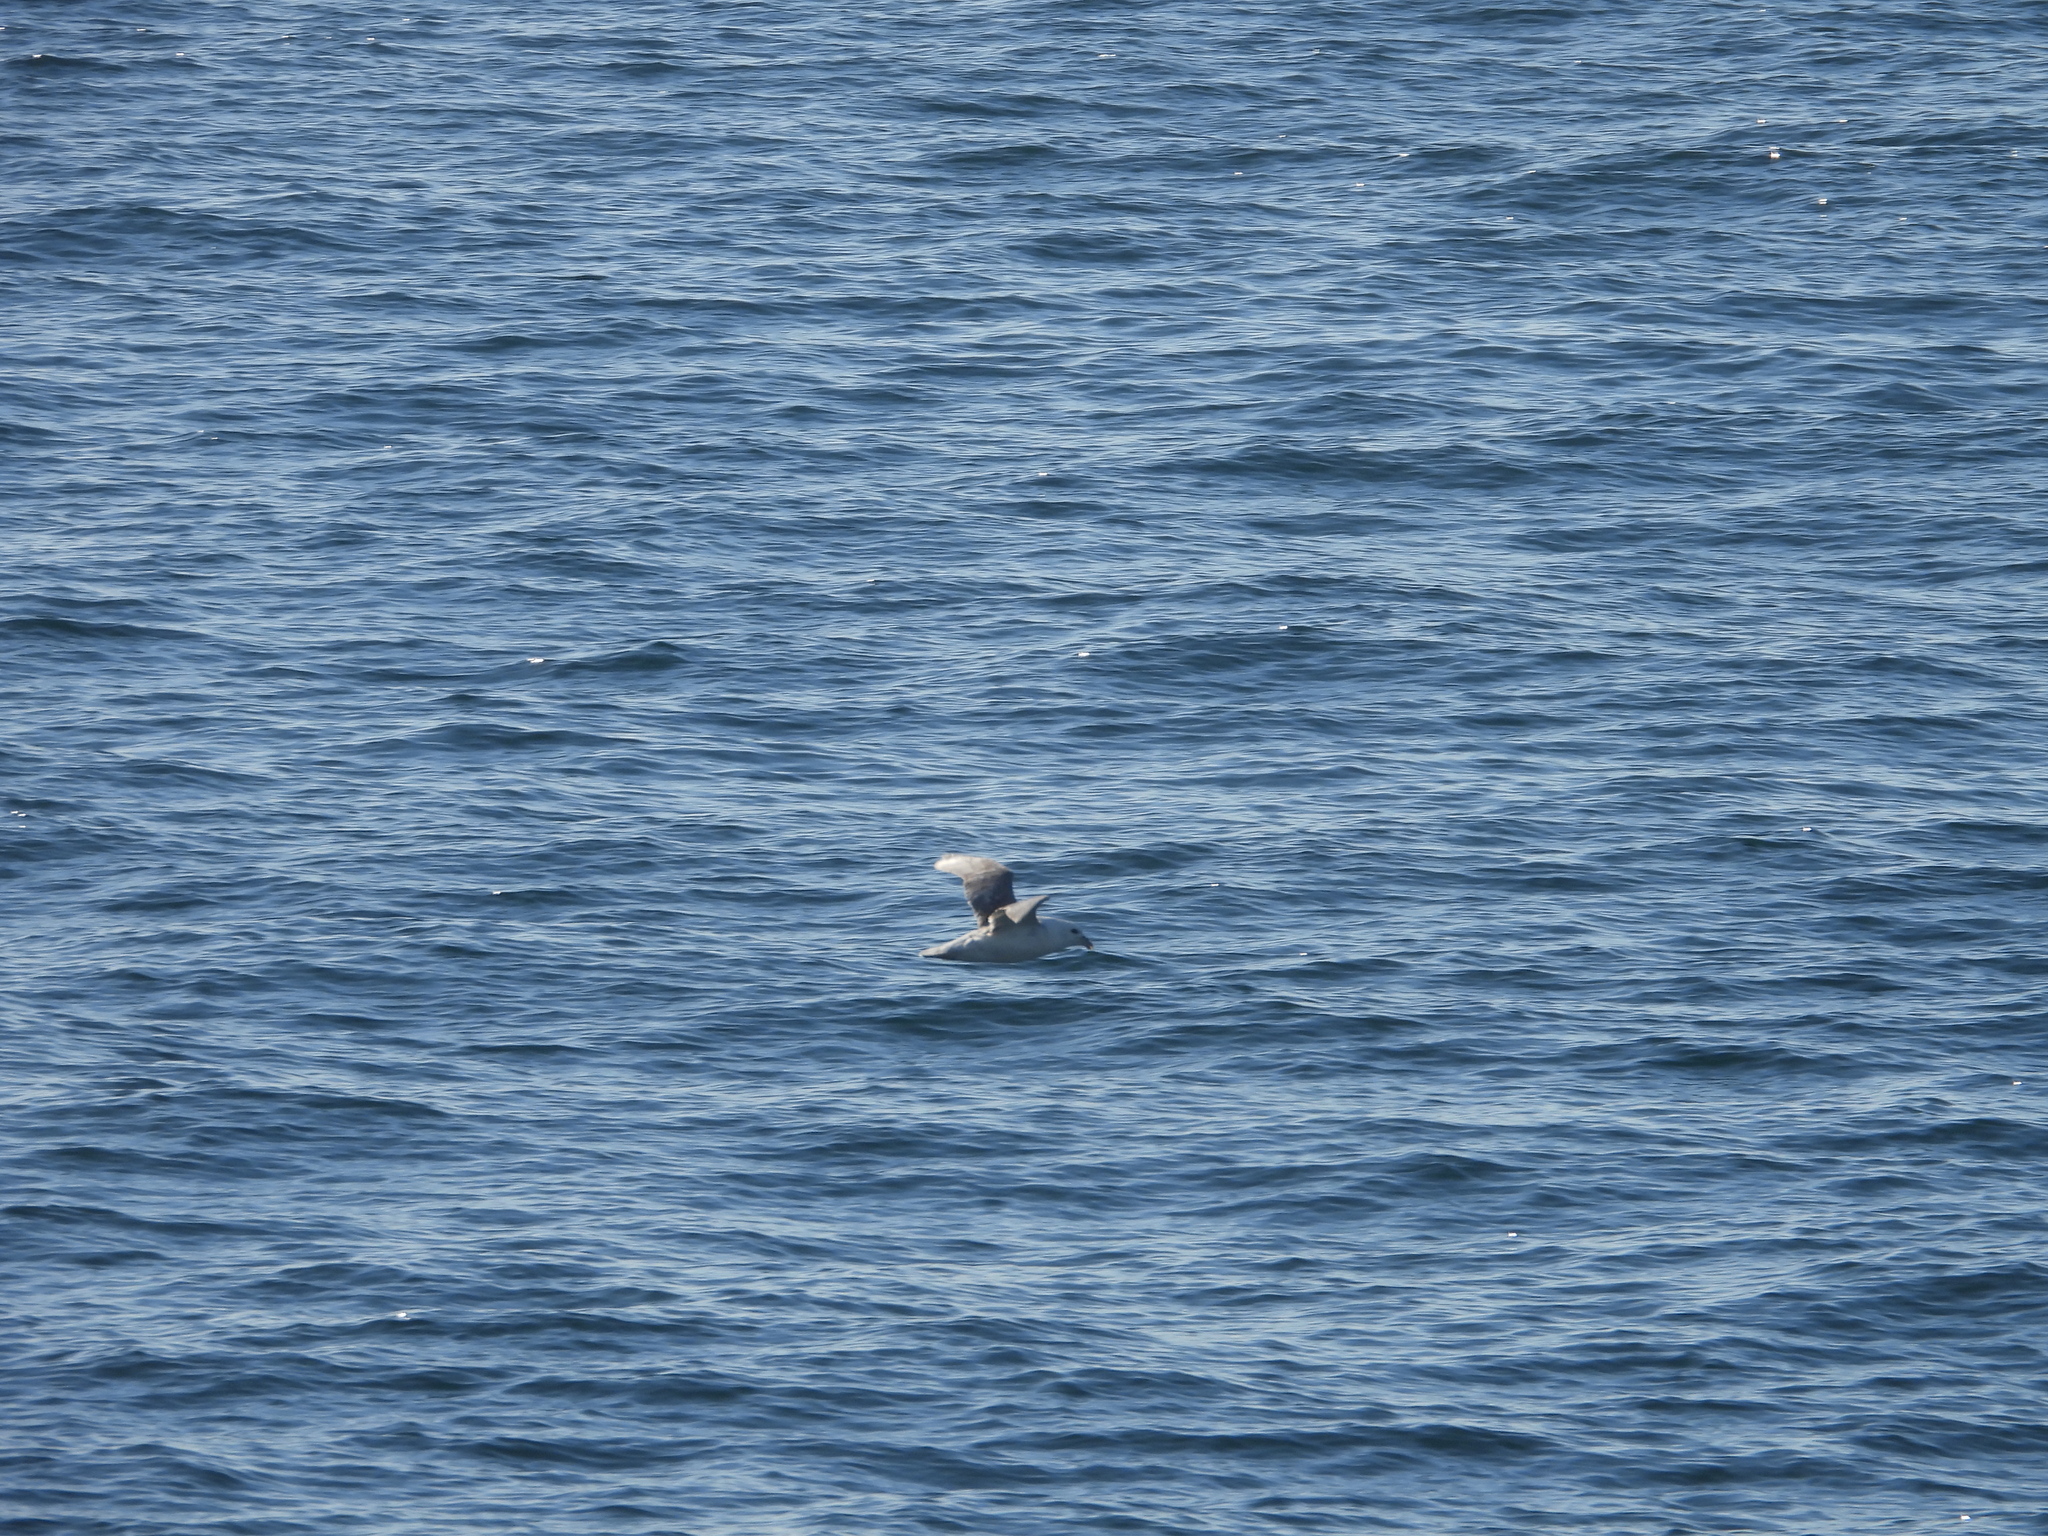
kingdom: Animalia
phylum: Chordata
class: Aves
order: Procellariiformes
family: Procellariidae
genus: Fulmarus
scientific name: Fulmarus glacialis
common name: Northern fulmar
